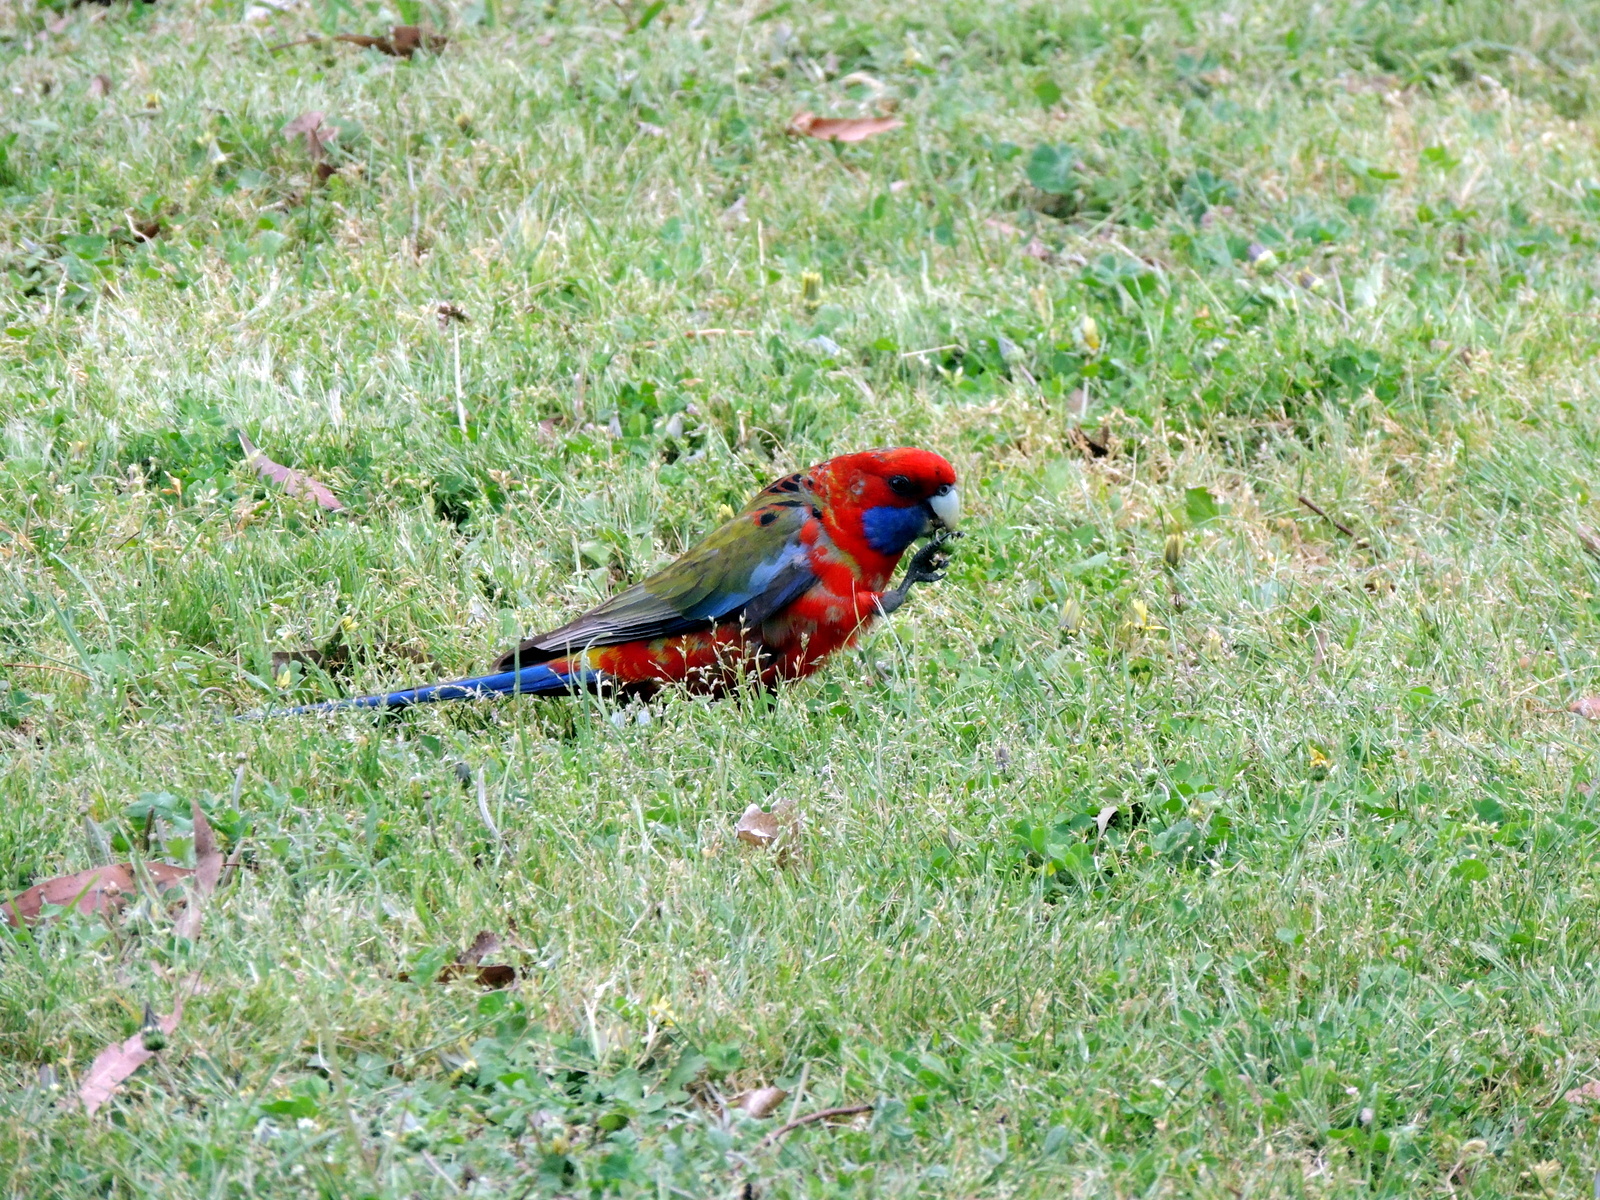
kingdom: Animalia
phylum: Chordata
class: Aves
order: Psittaciformes
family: Psittacidae
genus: Platycercus
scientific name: Platycercus elegans
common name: Crimson rosella
